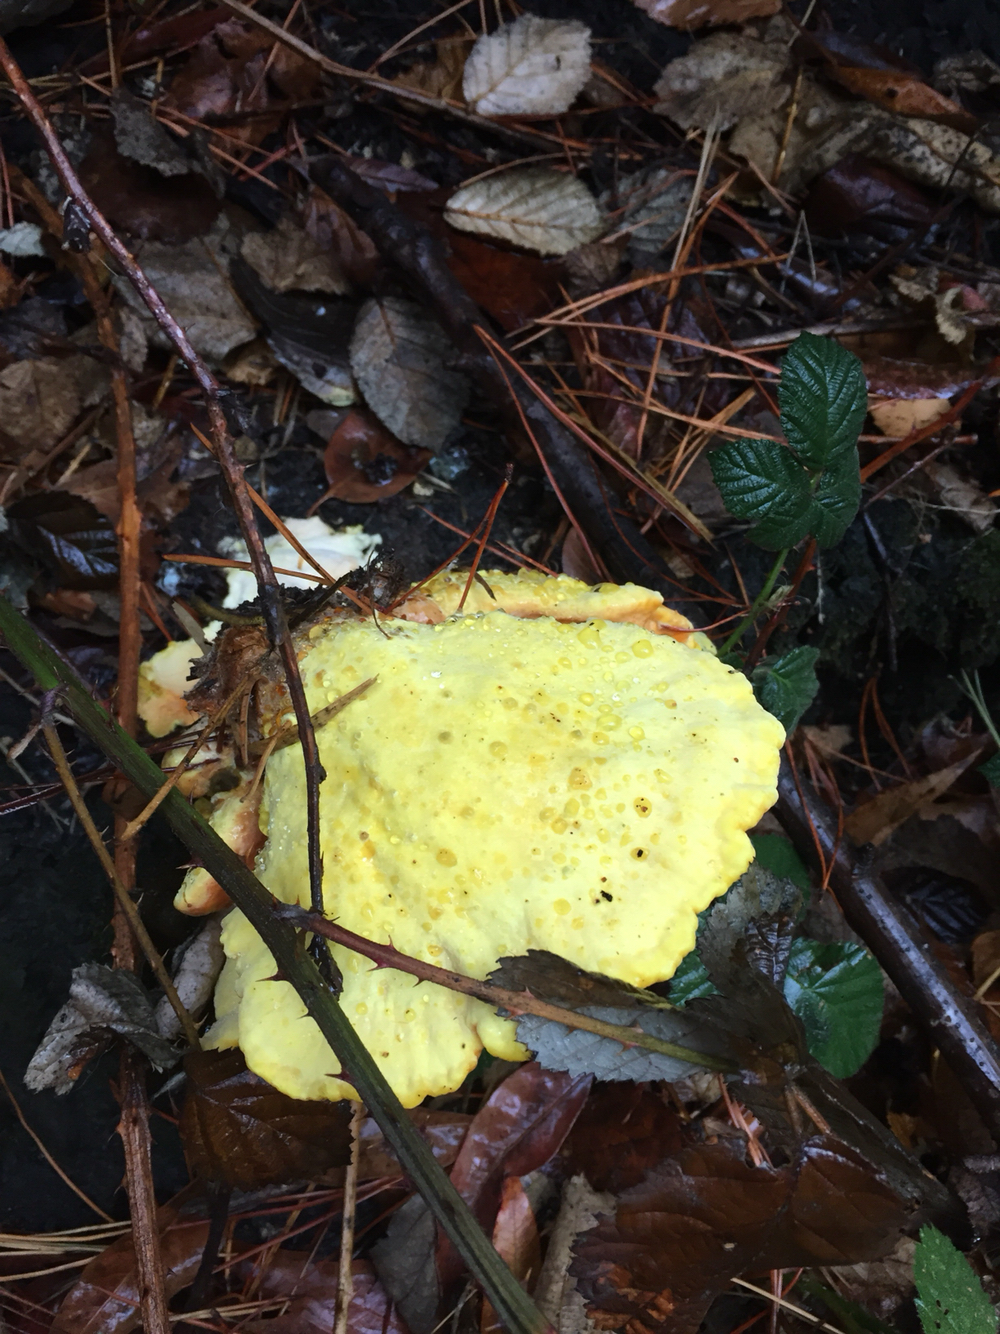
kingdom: Fungi
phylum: Basidiomycota
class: Agaricomycetes
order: Polyporales
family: Laetiporaceae
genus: Laetiporus
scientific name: Laetiporus gilbertsonii
